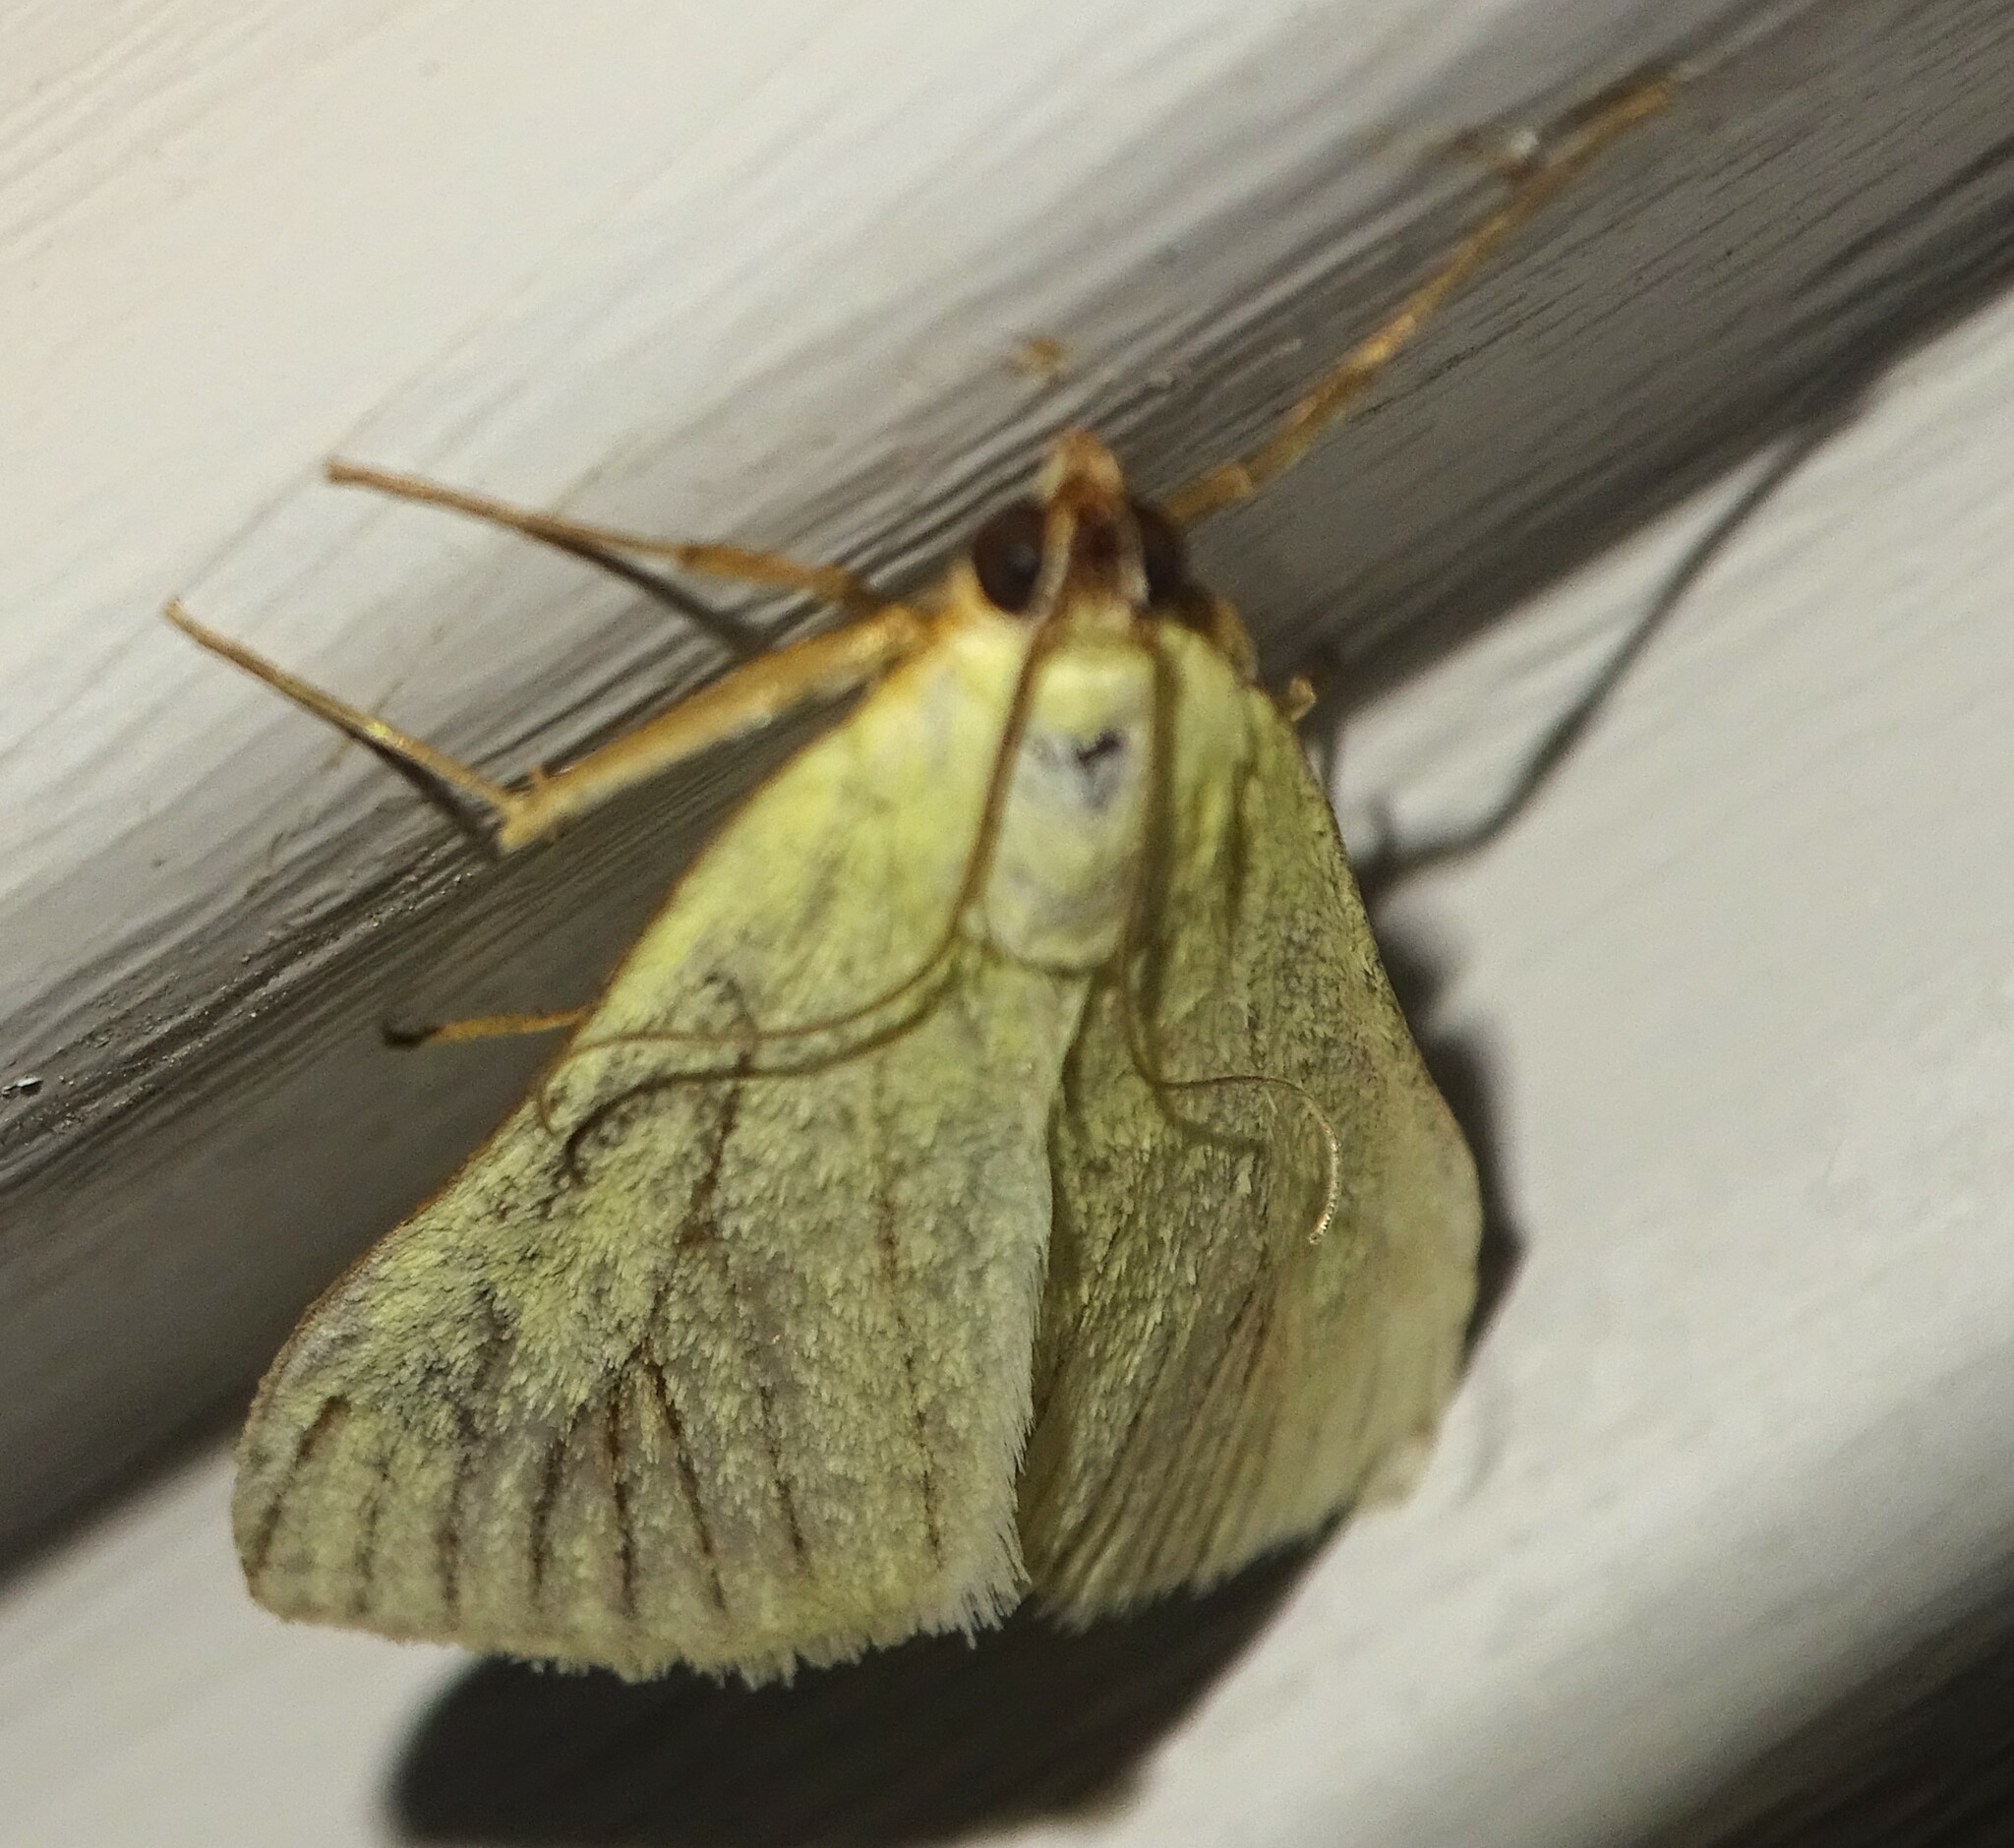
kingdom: Animalia
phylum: Arthropoda
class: Insecta
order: Lepidoptera
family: Crambidae
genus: Sitochroa
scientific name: Sitochroa palealis
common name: Greenish-yellow sitochroa moth
